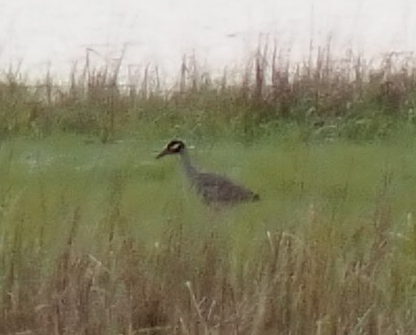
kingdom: Animalia
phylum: Chordata
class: Aves
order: Pelecaniformes
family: Ardeidae
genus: Nyctanassa
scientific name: Nyctanassa violacea
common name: Yellow-crowned night heron
